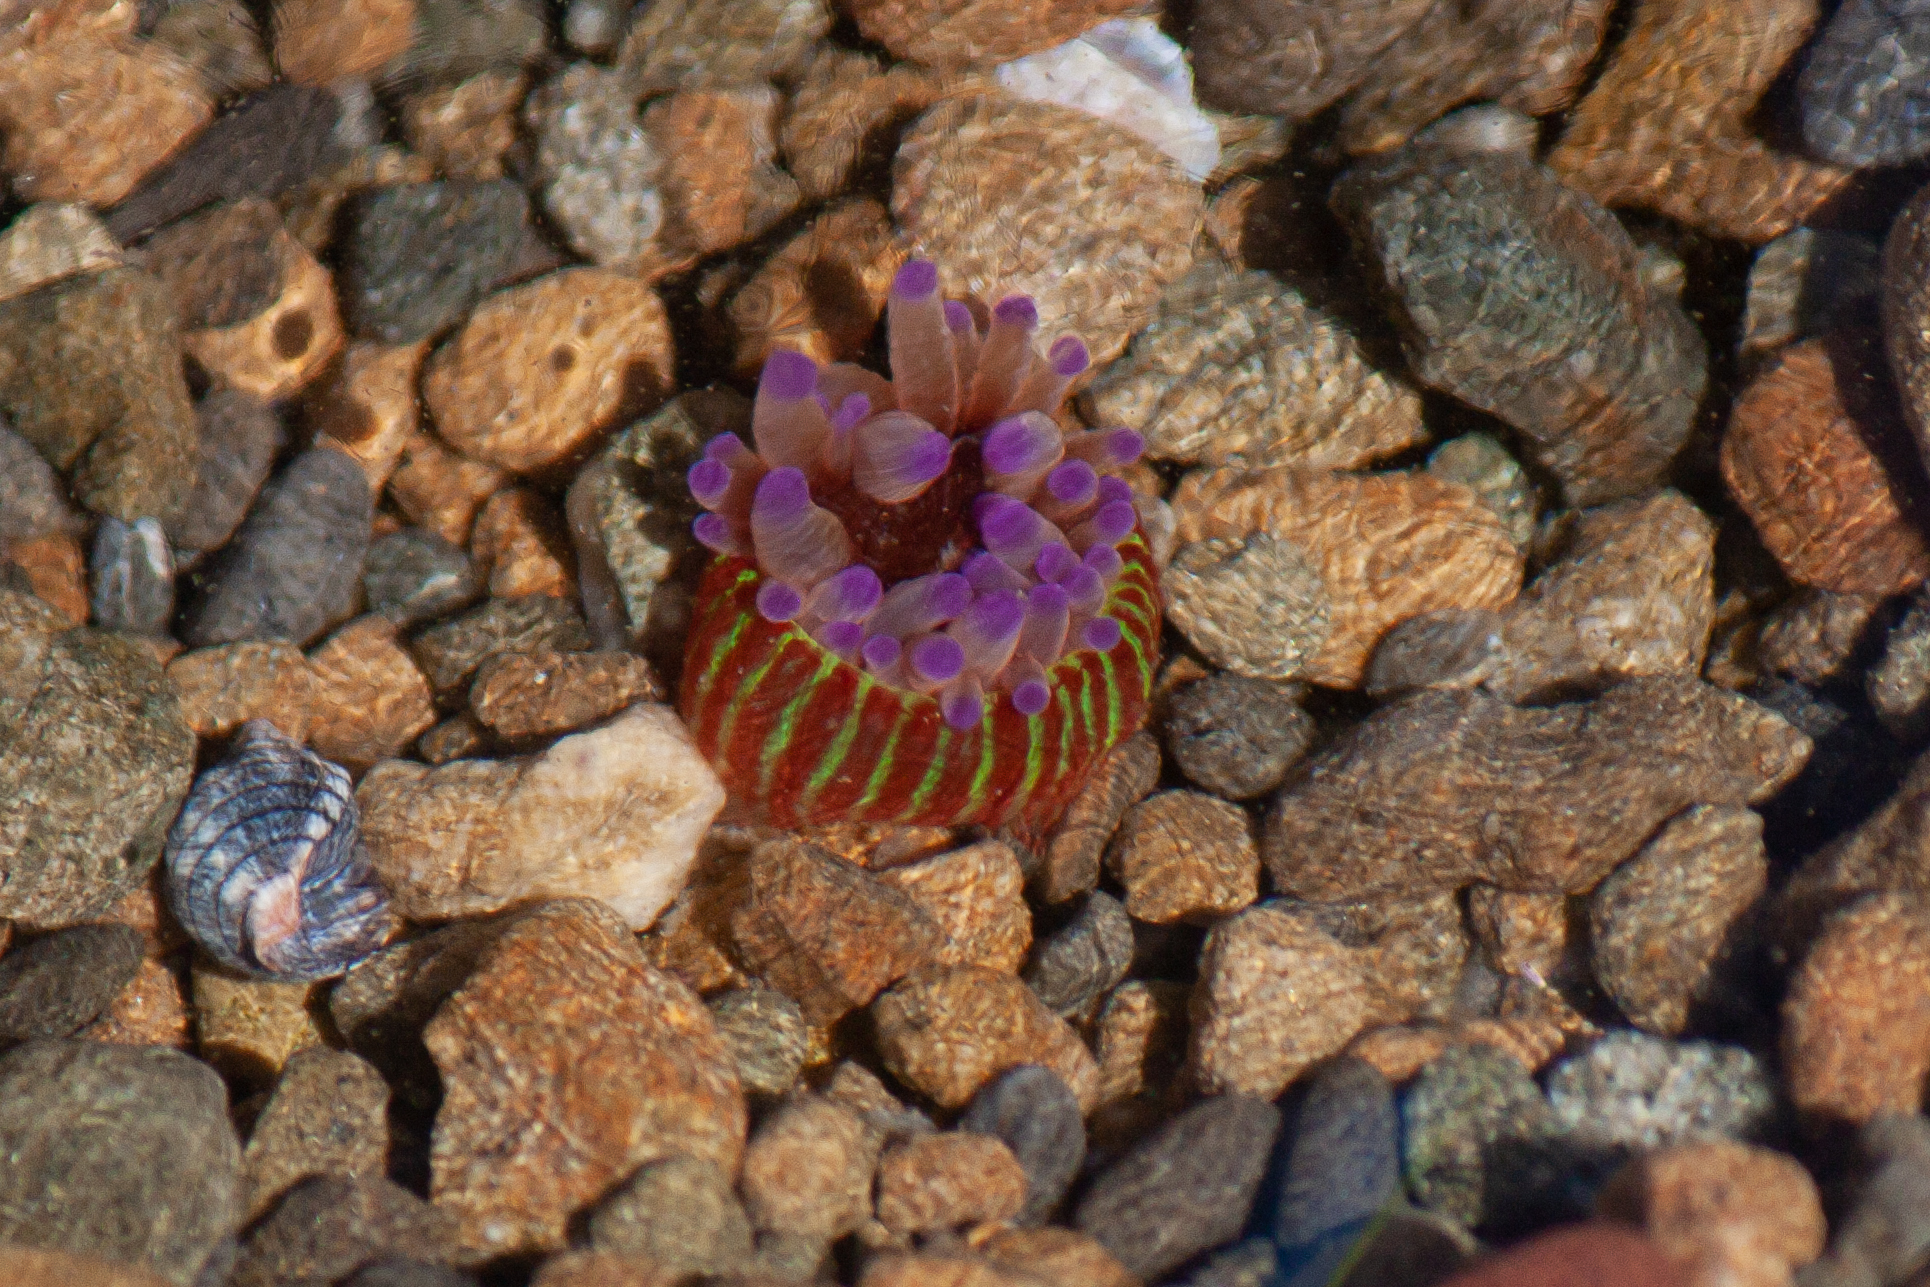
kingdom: Animalia
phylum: Cnidaria
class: Anthozoa
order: Actiniaria
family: Actiniidae
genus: Epiactis
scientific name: Epiactis thompsoni
